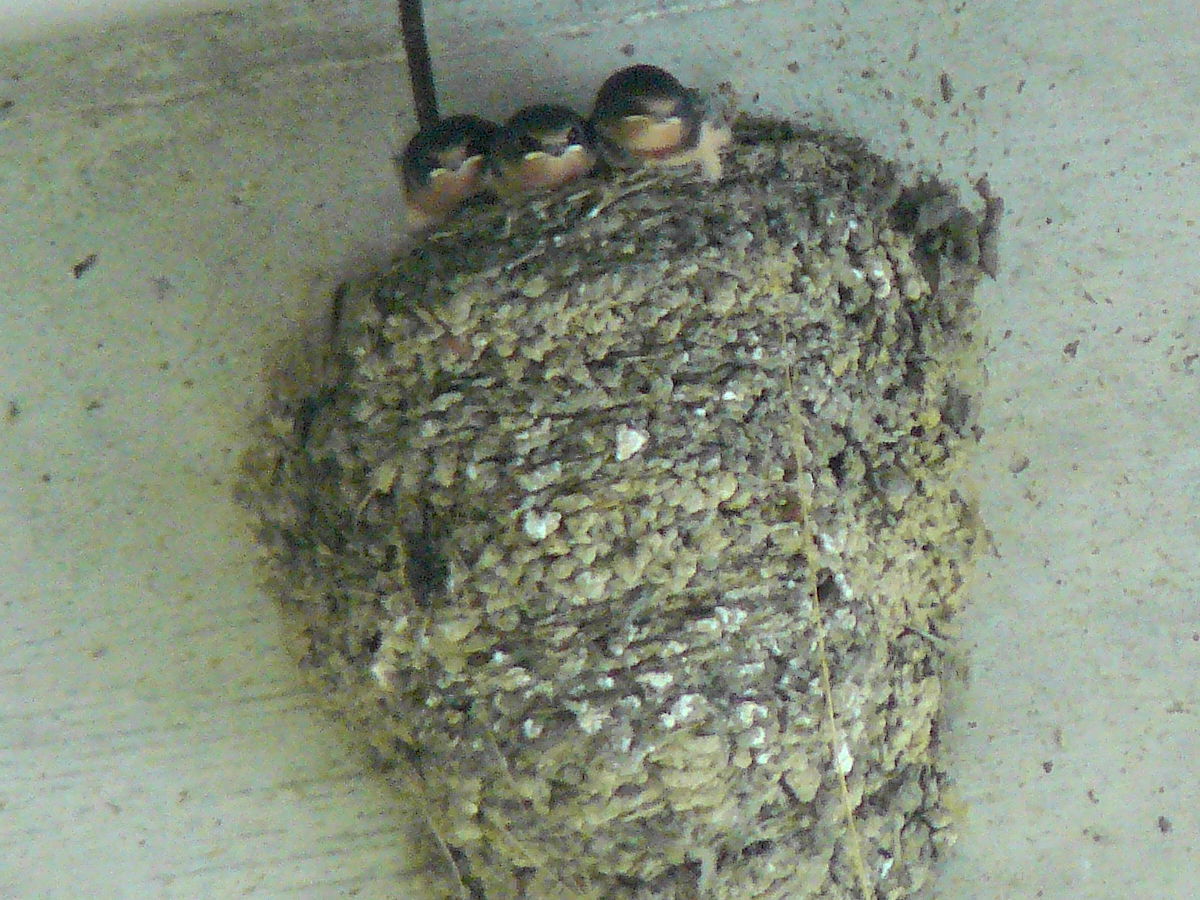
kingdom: Animalia
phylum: Chordata
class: Aves
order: Passeriformes
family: Hirundinidae
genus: Hirundo
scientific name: Hirundo rustica
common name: Barn swallow
